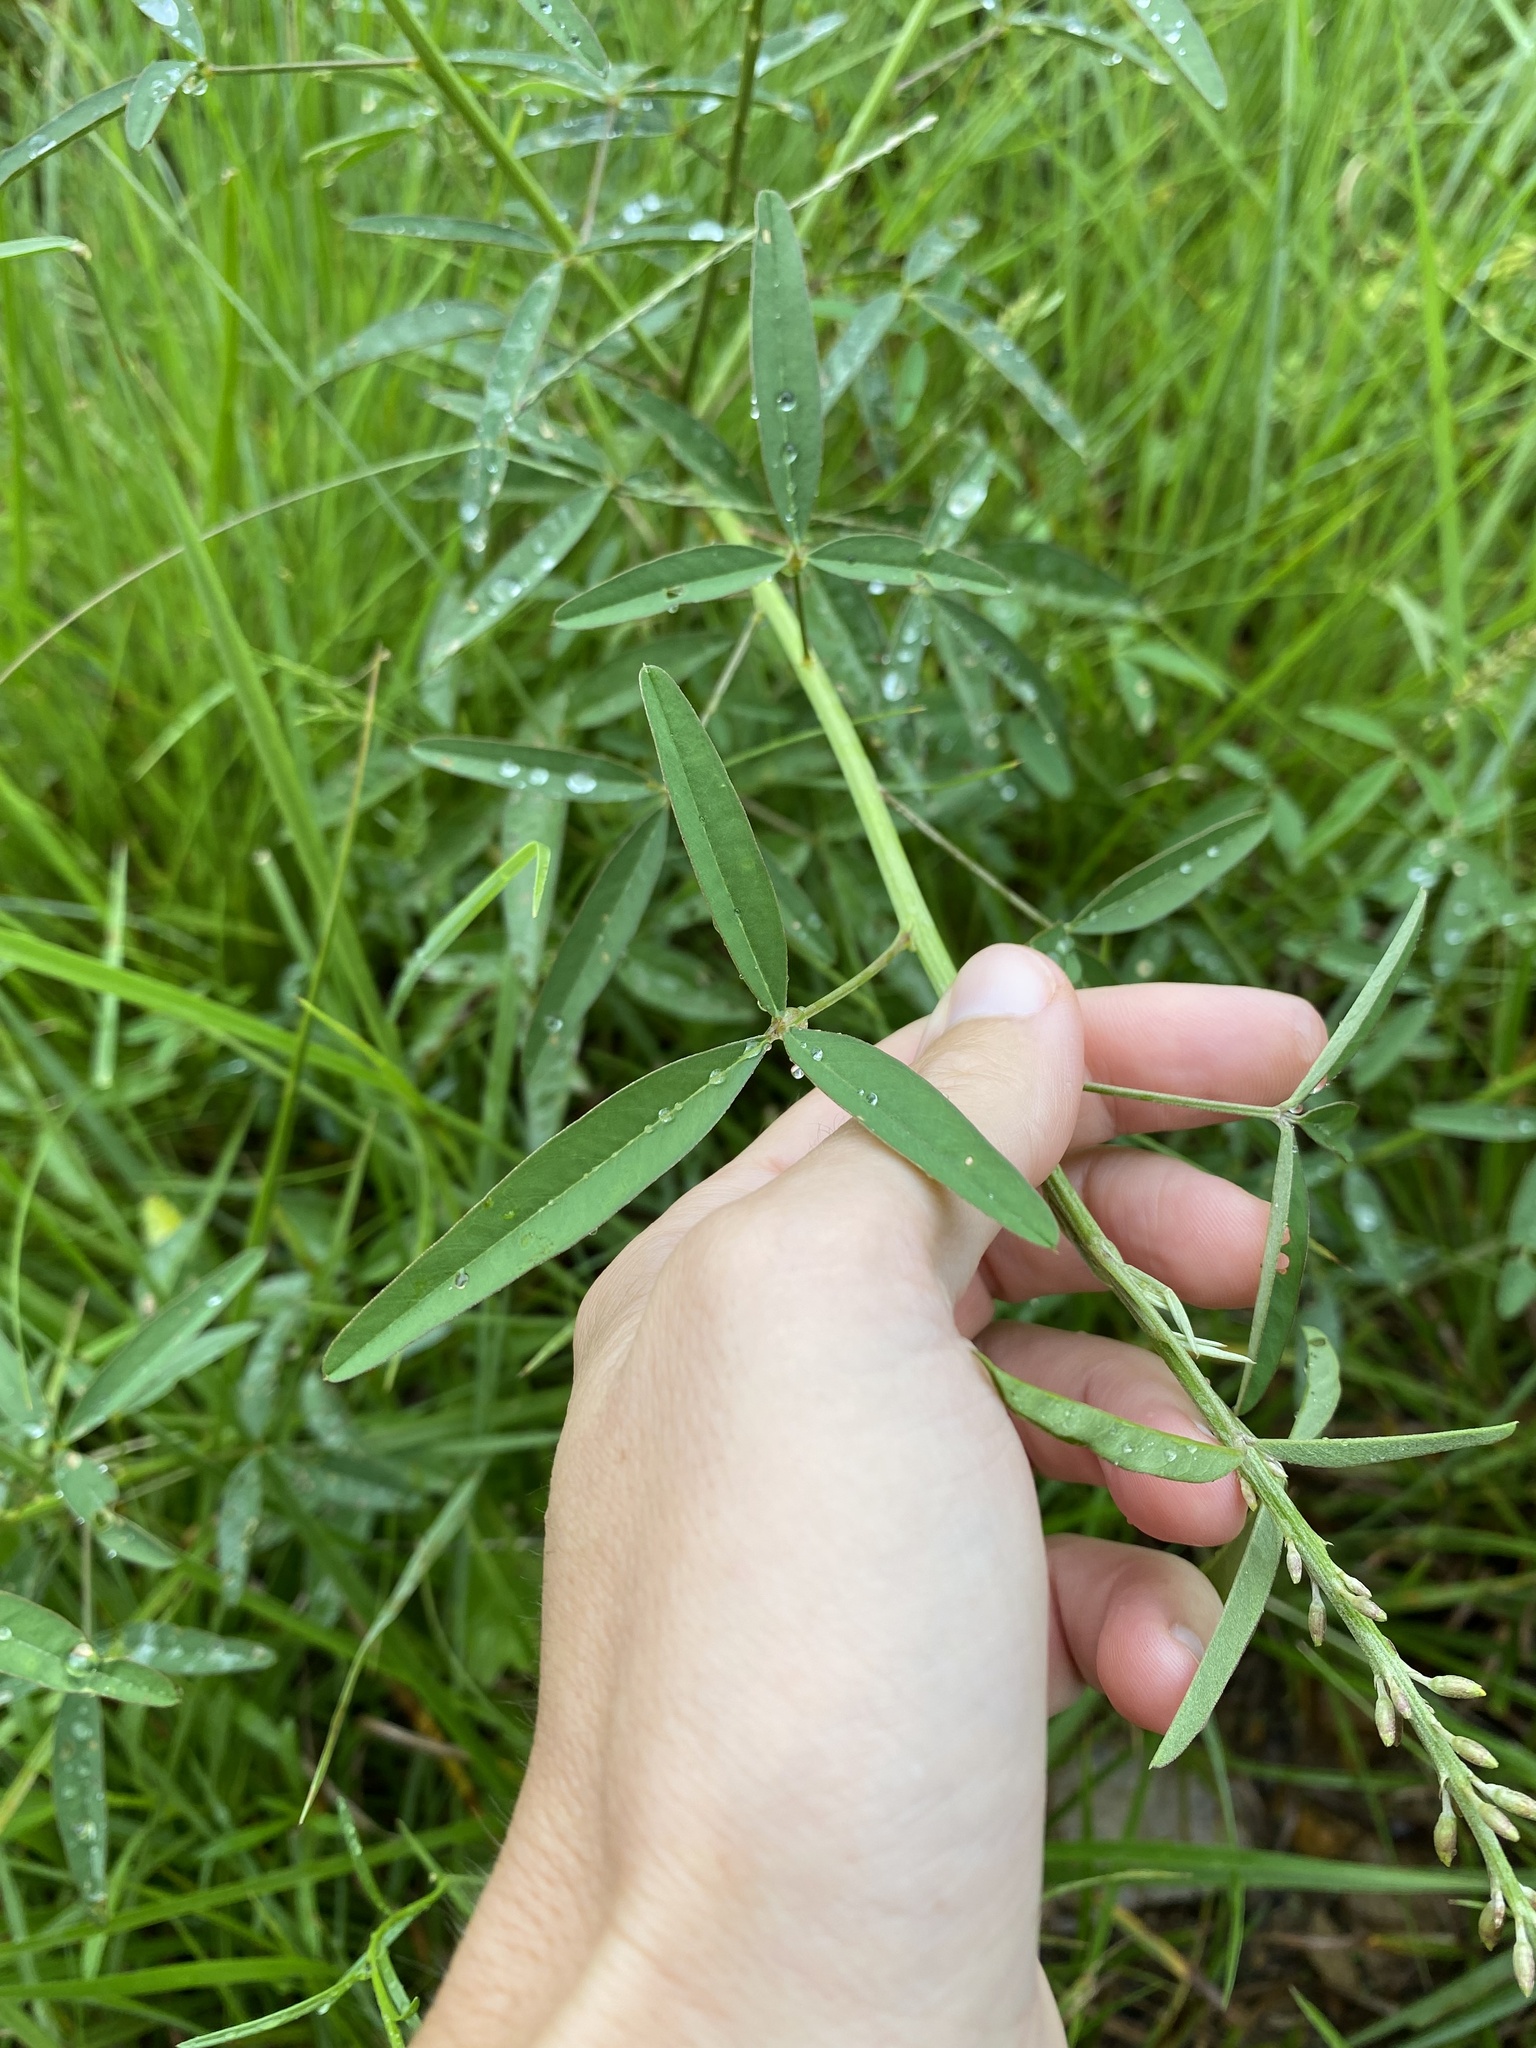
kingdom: Plantae
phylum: Tracheophyta
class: Magnoliopsida
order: Fabales
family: Fabaceae
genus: Crotalaria
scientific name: Crotalaria lanceolata
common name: Lanceleaf rattlebox
